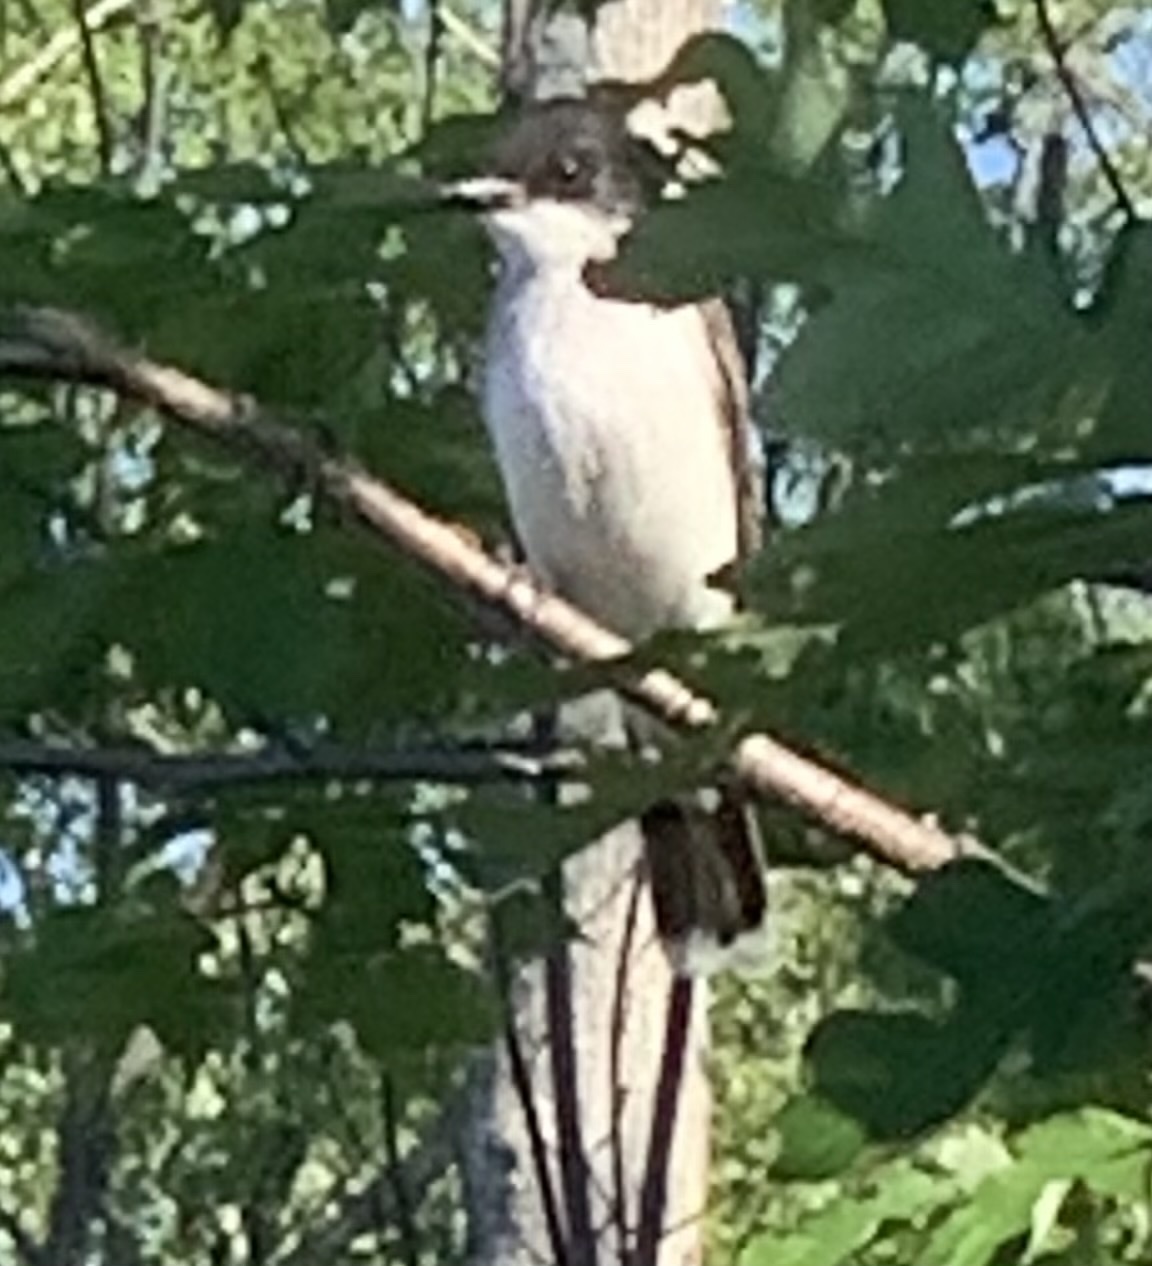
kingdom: Animalia
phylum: Chordata
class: Aves
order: Passeriformes
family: Tyrannidae
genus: Tyrannus
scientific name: Tyrannus tyrannus
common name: Eastern kingbird
